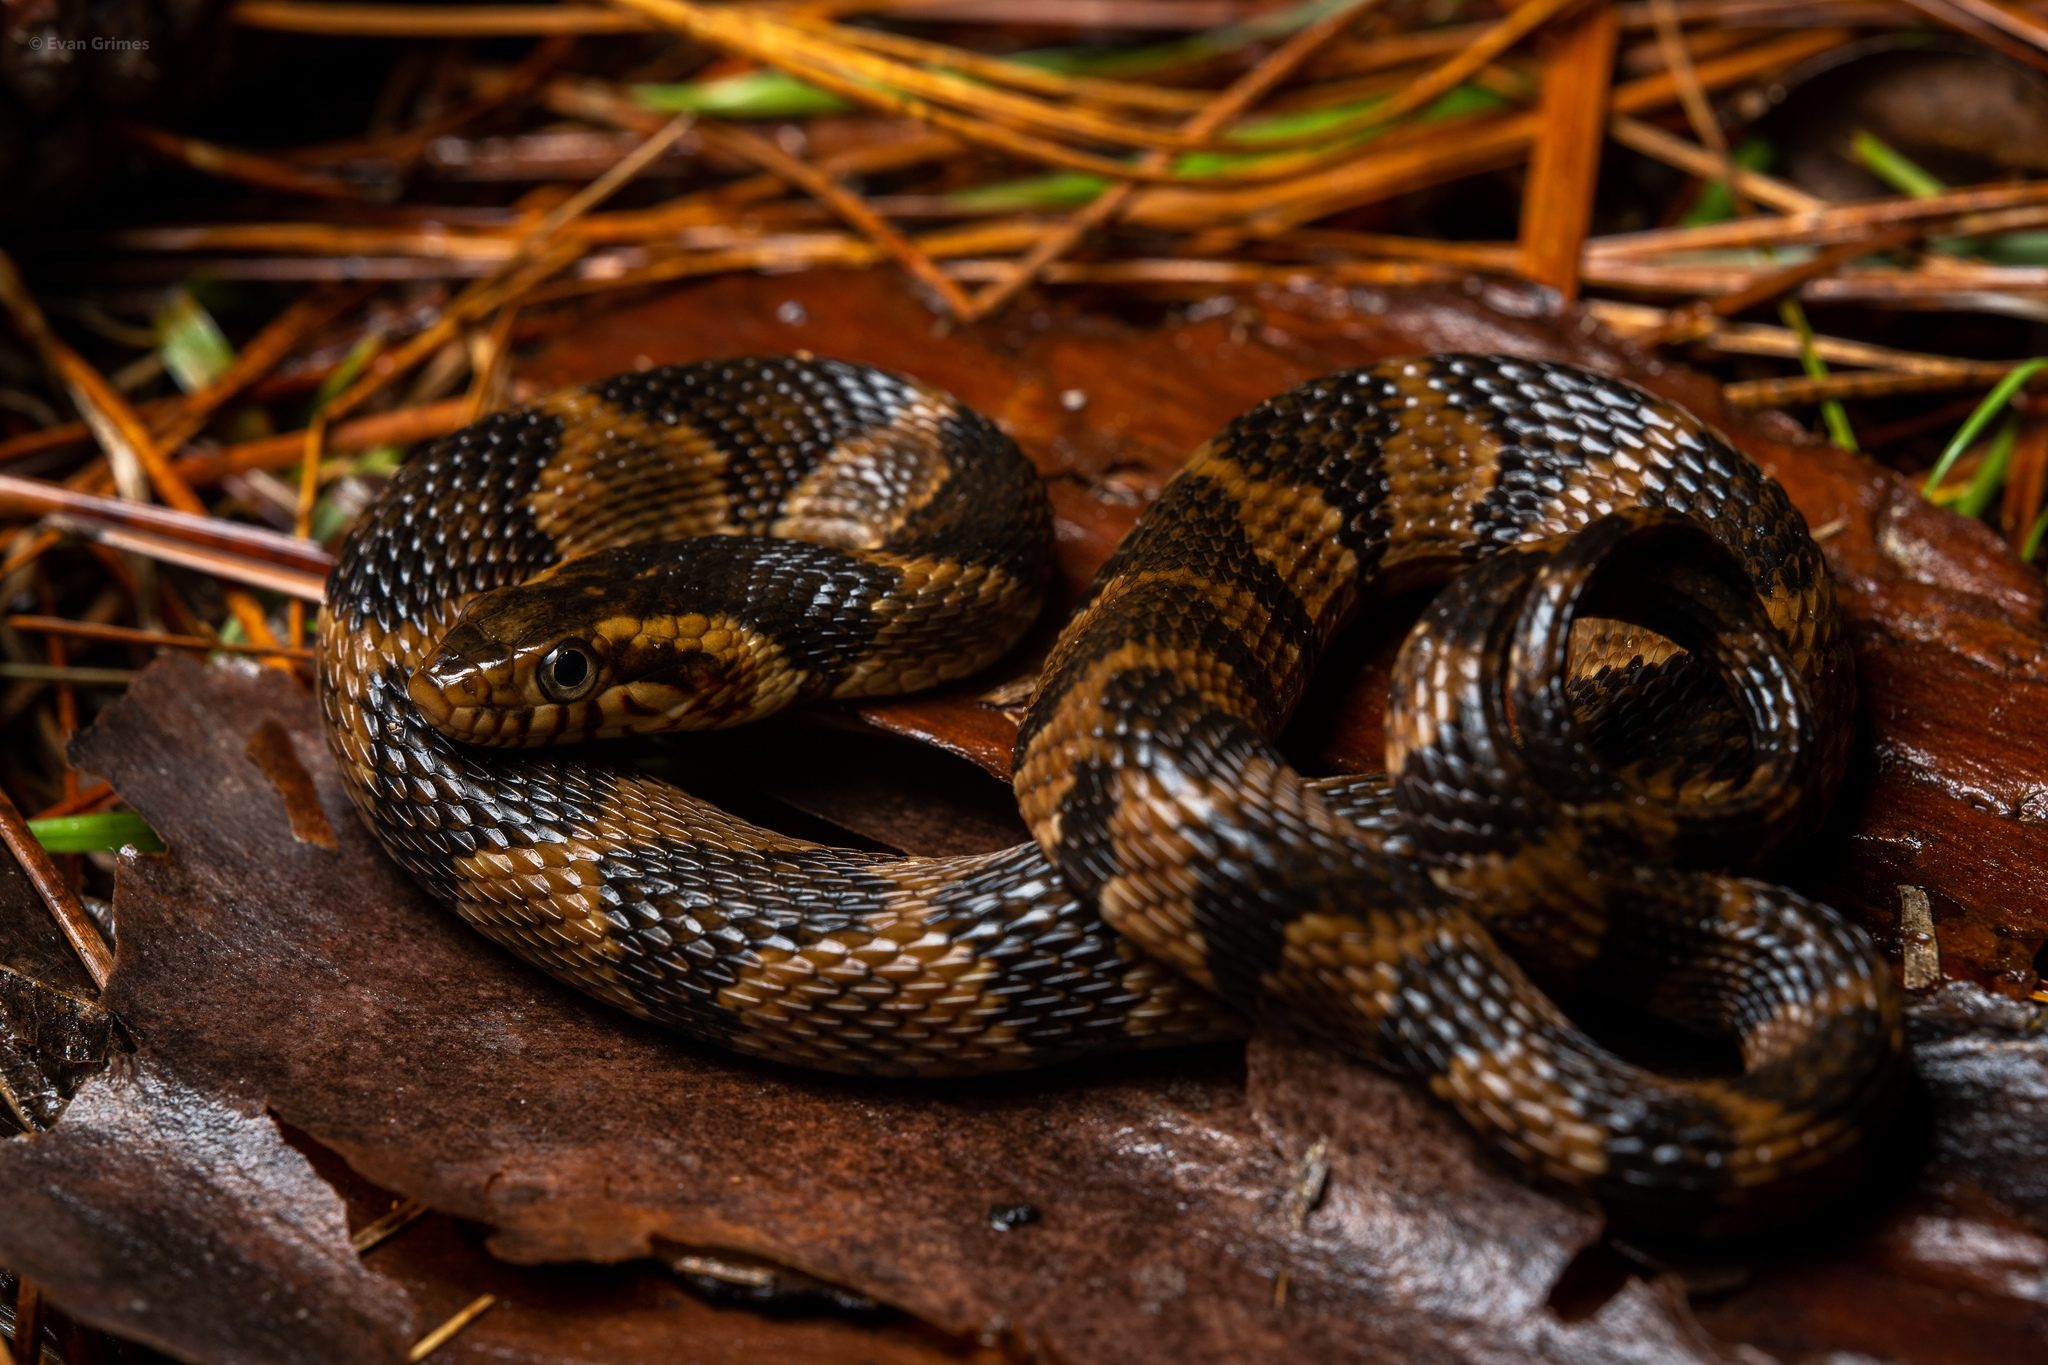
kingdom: Animalia
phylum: Chordata
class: Squamata
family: Colubridae
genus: Nerodia
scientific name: Nerodia fasciata
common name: Southern water snake
